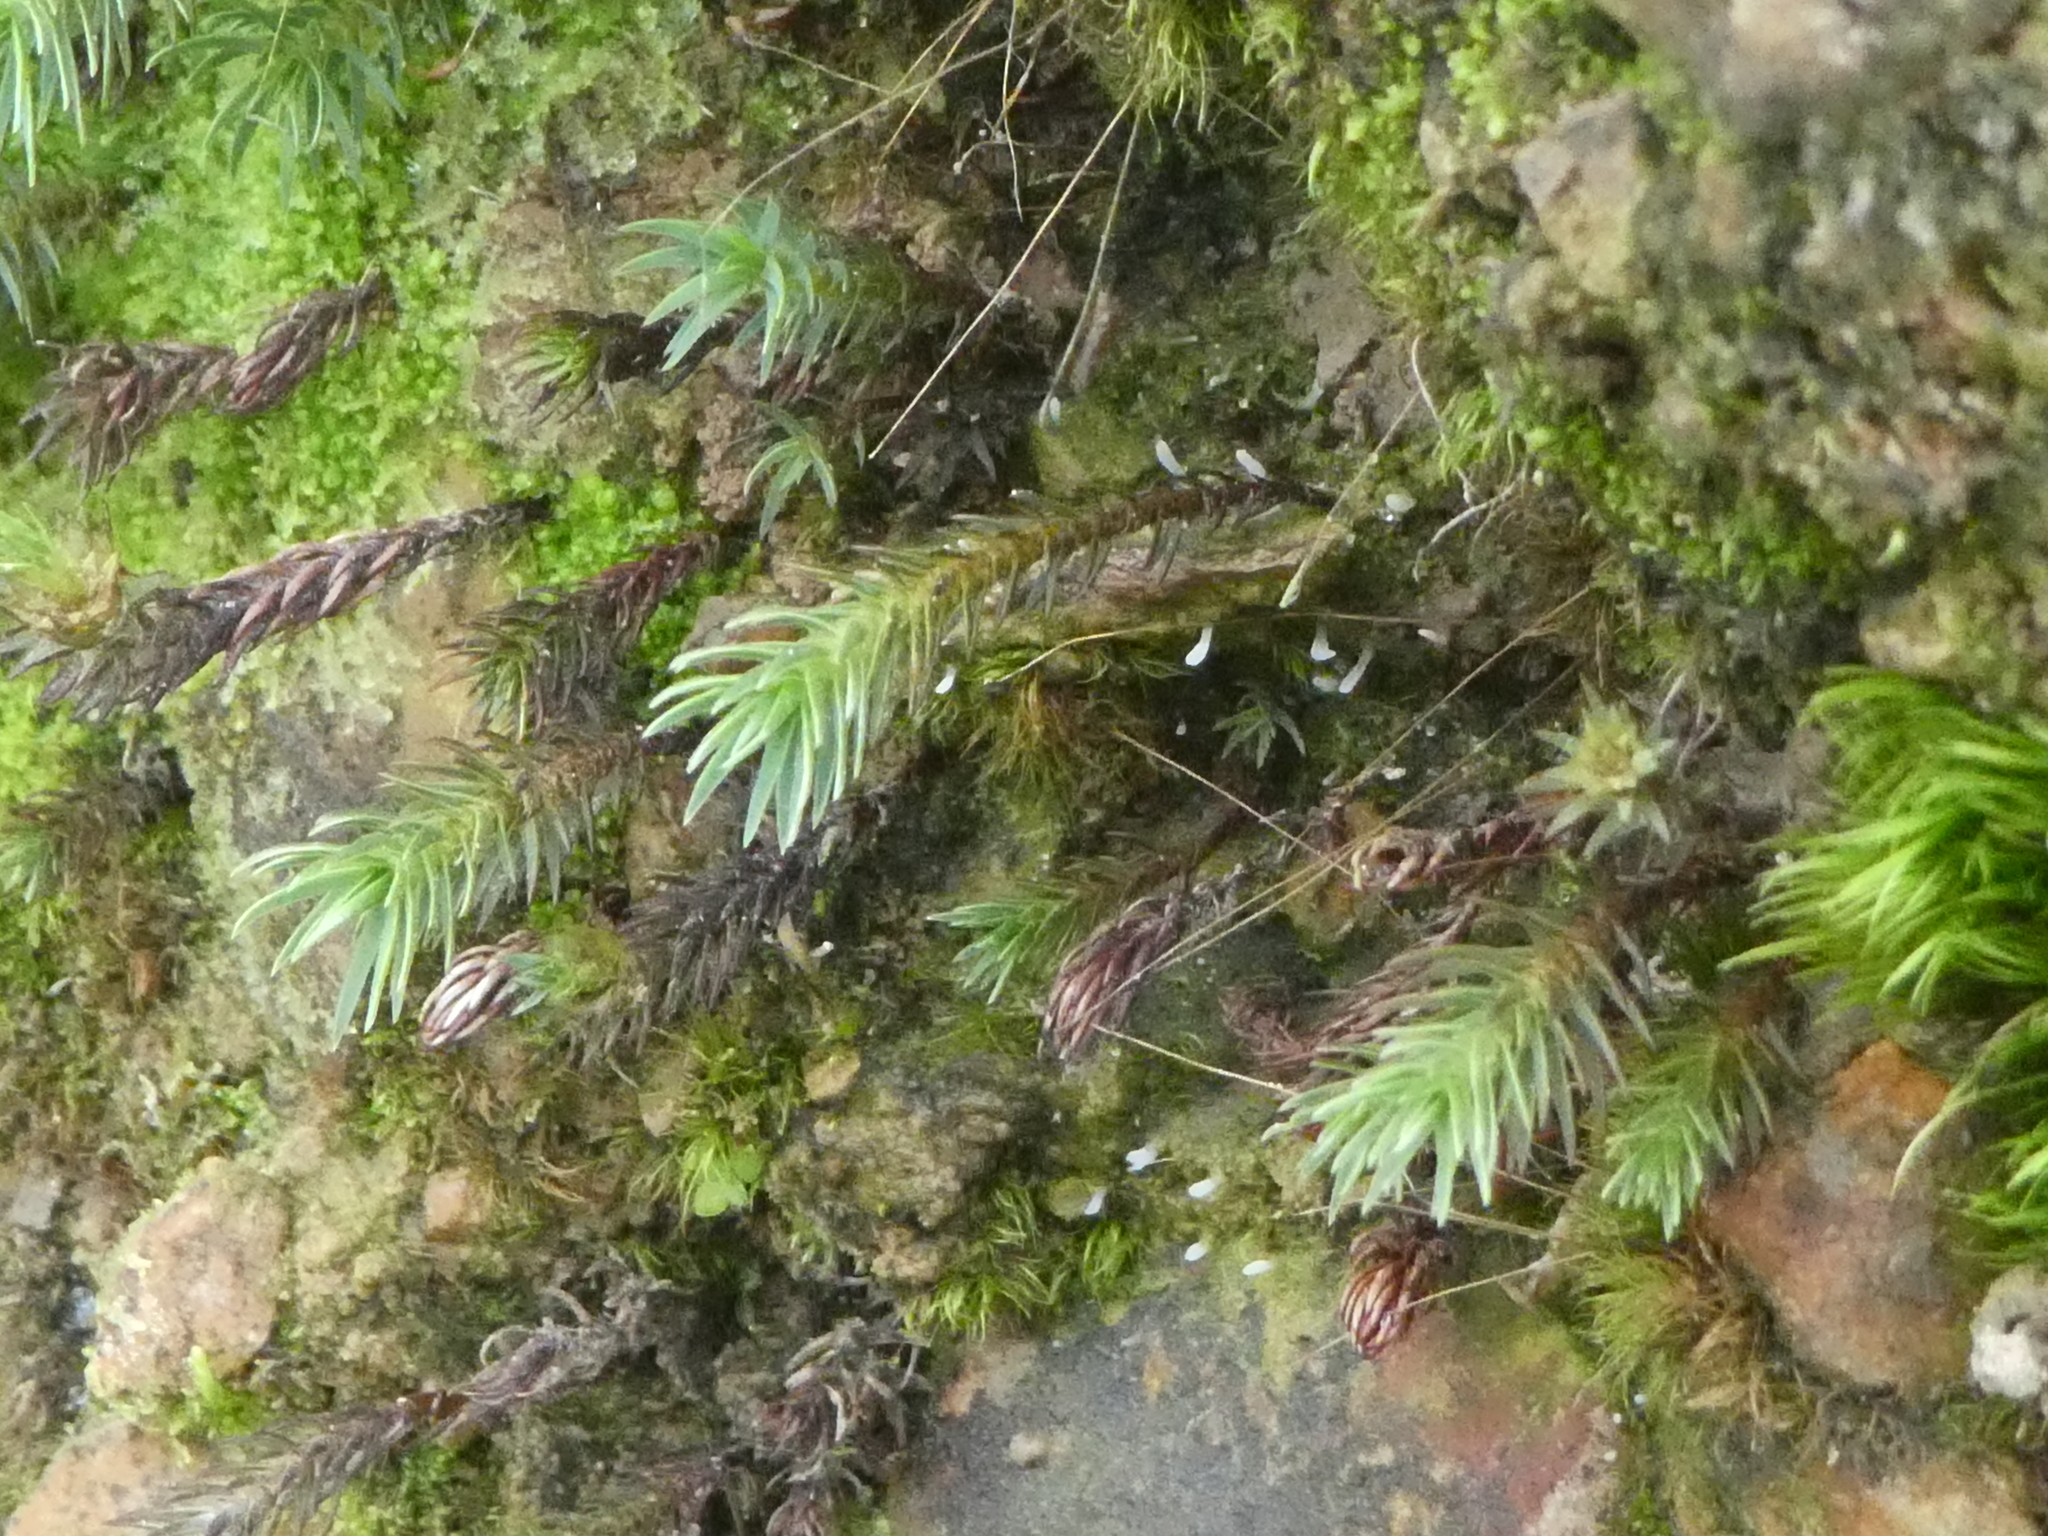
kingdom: Plantae
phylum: Bryophyta
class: Polytrichopsida
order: Polytrichales
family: Polytrichaceae
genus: Polytrichadelphus
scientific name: Polytrichadelphus magellanicus
